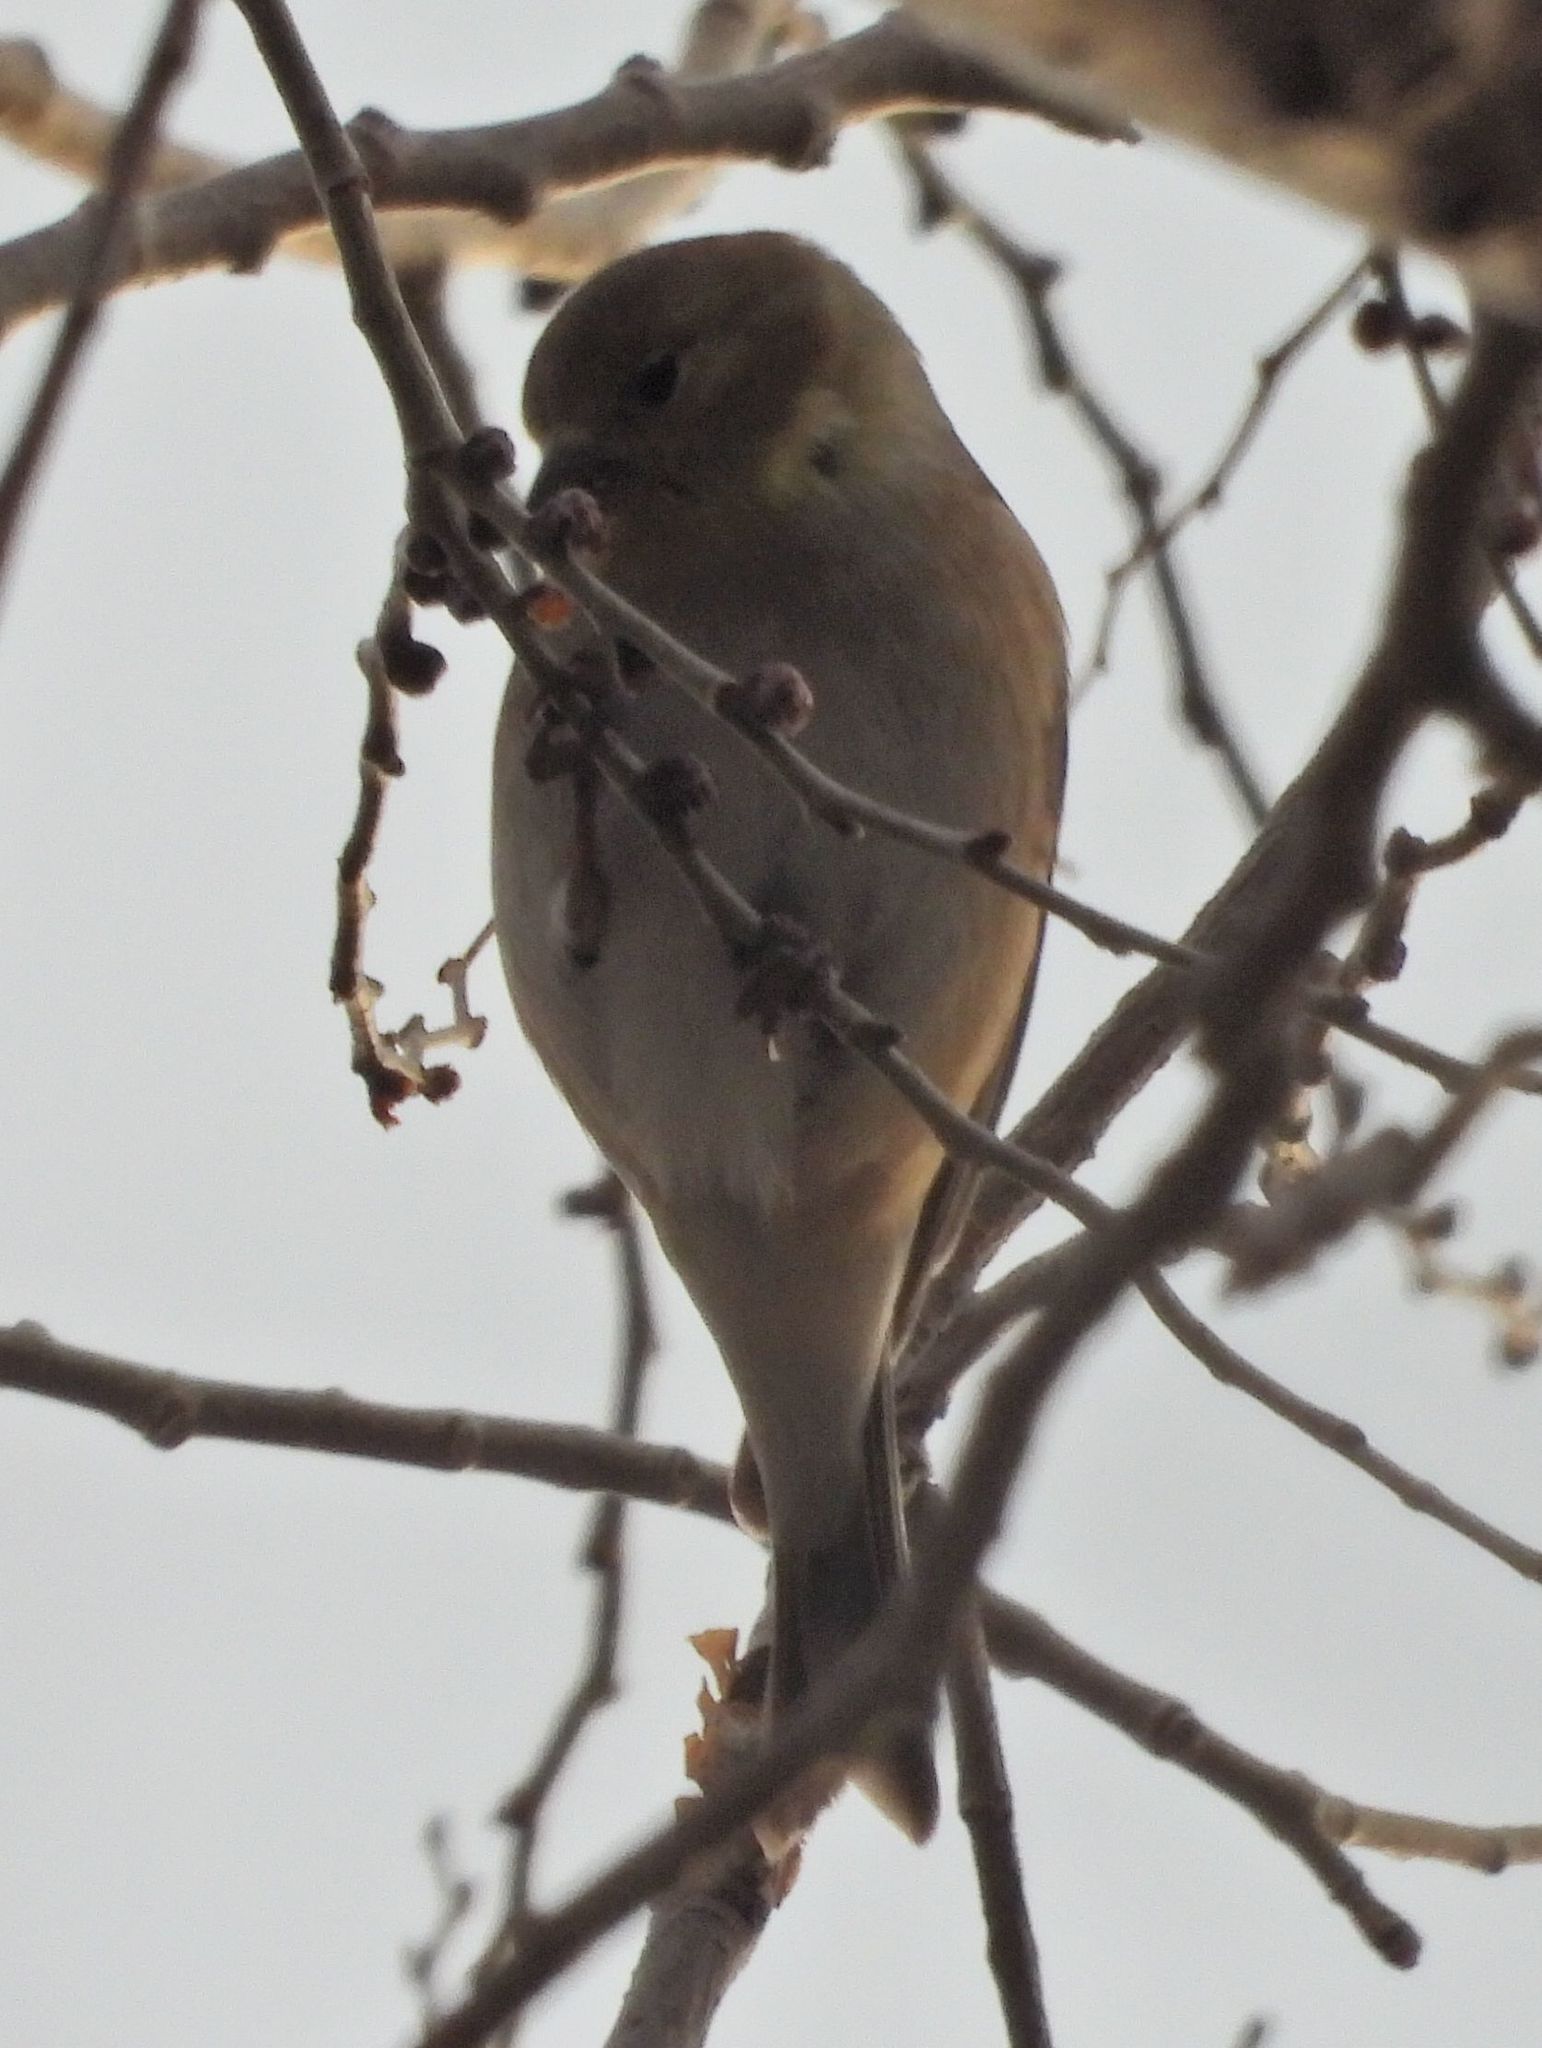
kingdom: Animalia
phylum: Chordata
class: Aves
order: Passeriformes
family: Fringillidae
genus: Spinus
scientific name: Spinus tristis
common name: American goldfinch
